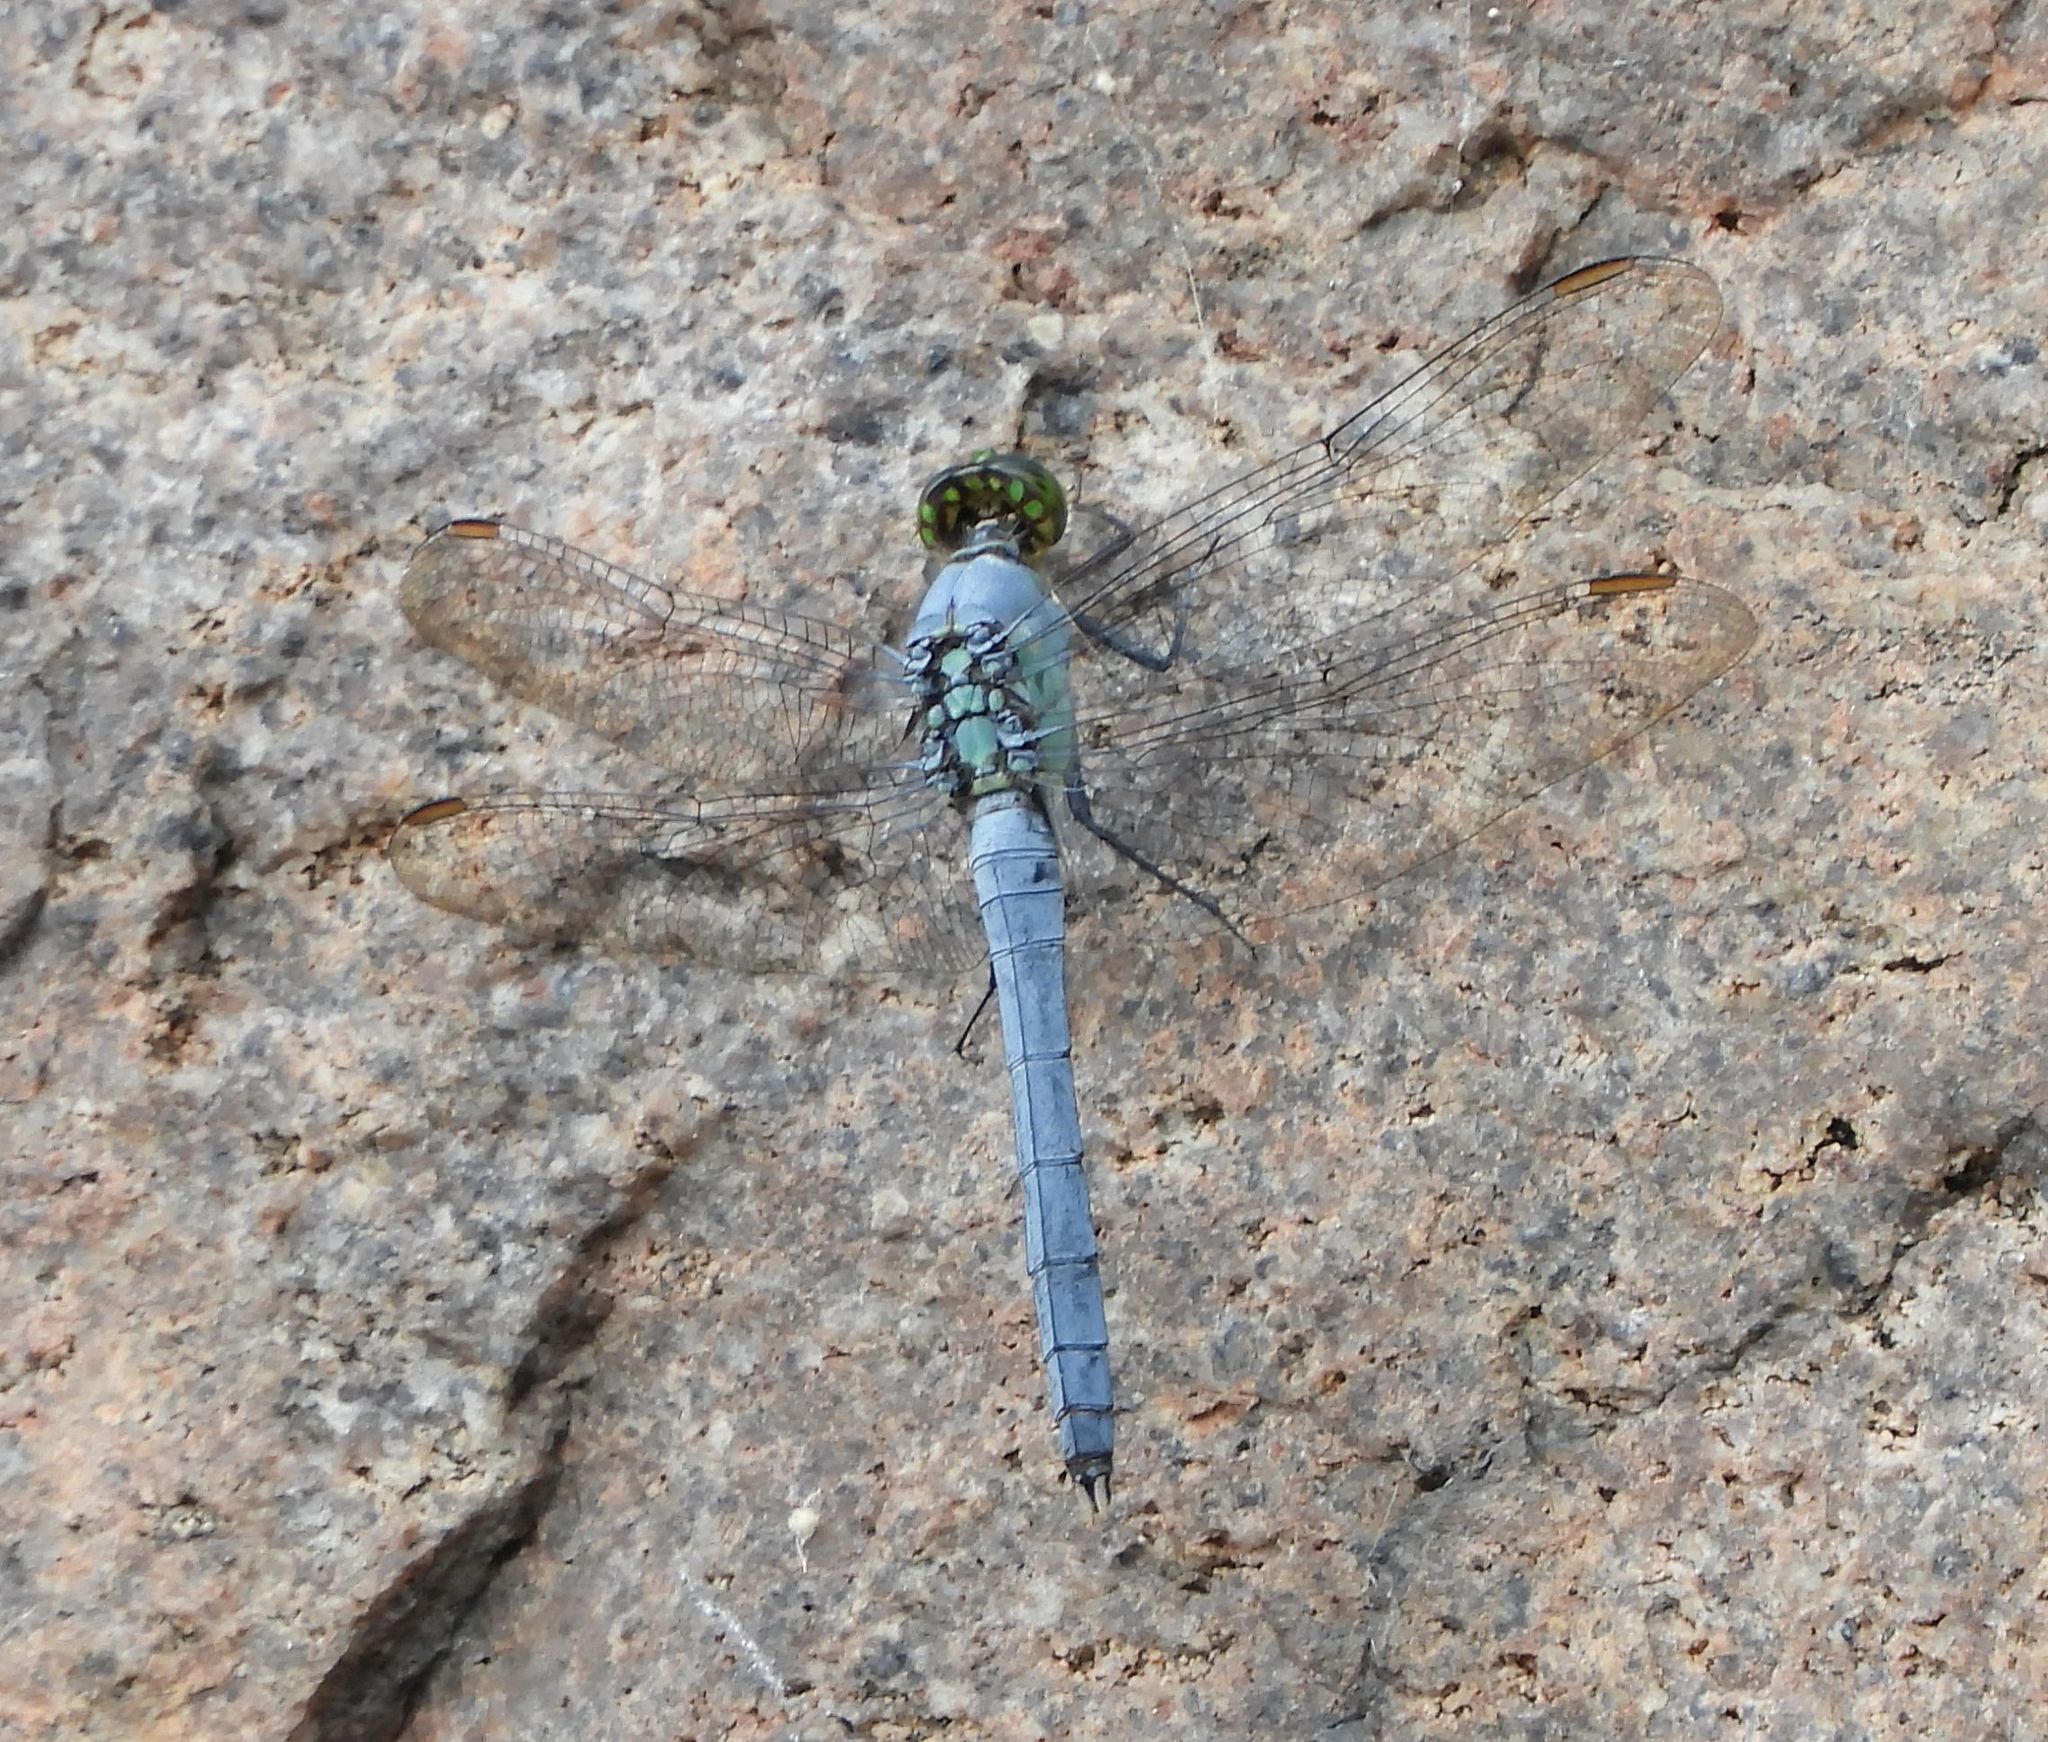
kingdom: Animalia
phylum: Arthropoda
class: Insecta
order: Odonata
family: Libellulidae
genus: Erythemis
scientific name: Erythemis simplicicollis
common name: Eastern pondhawk
